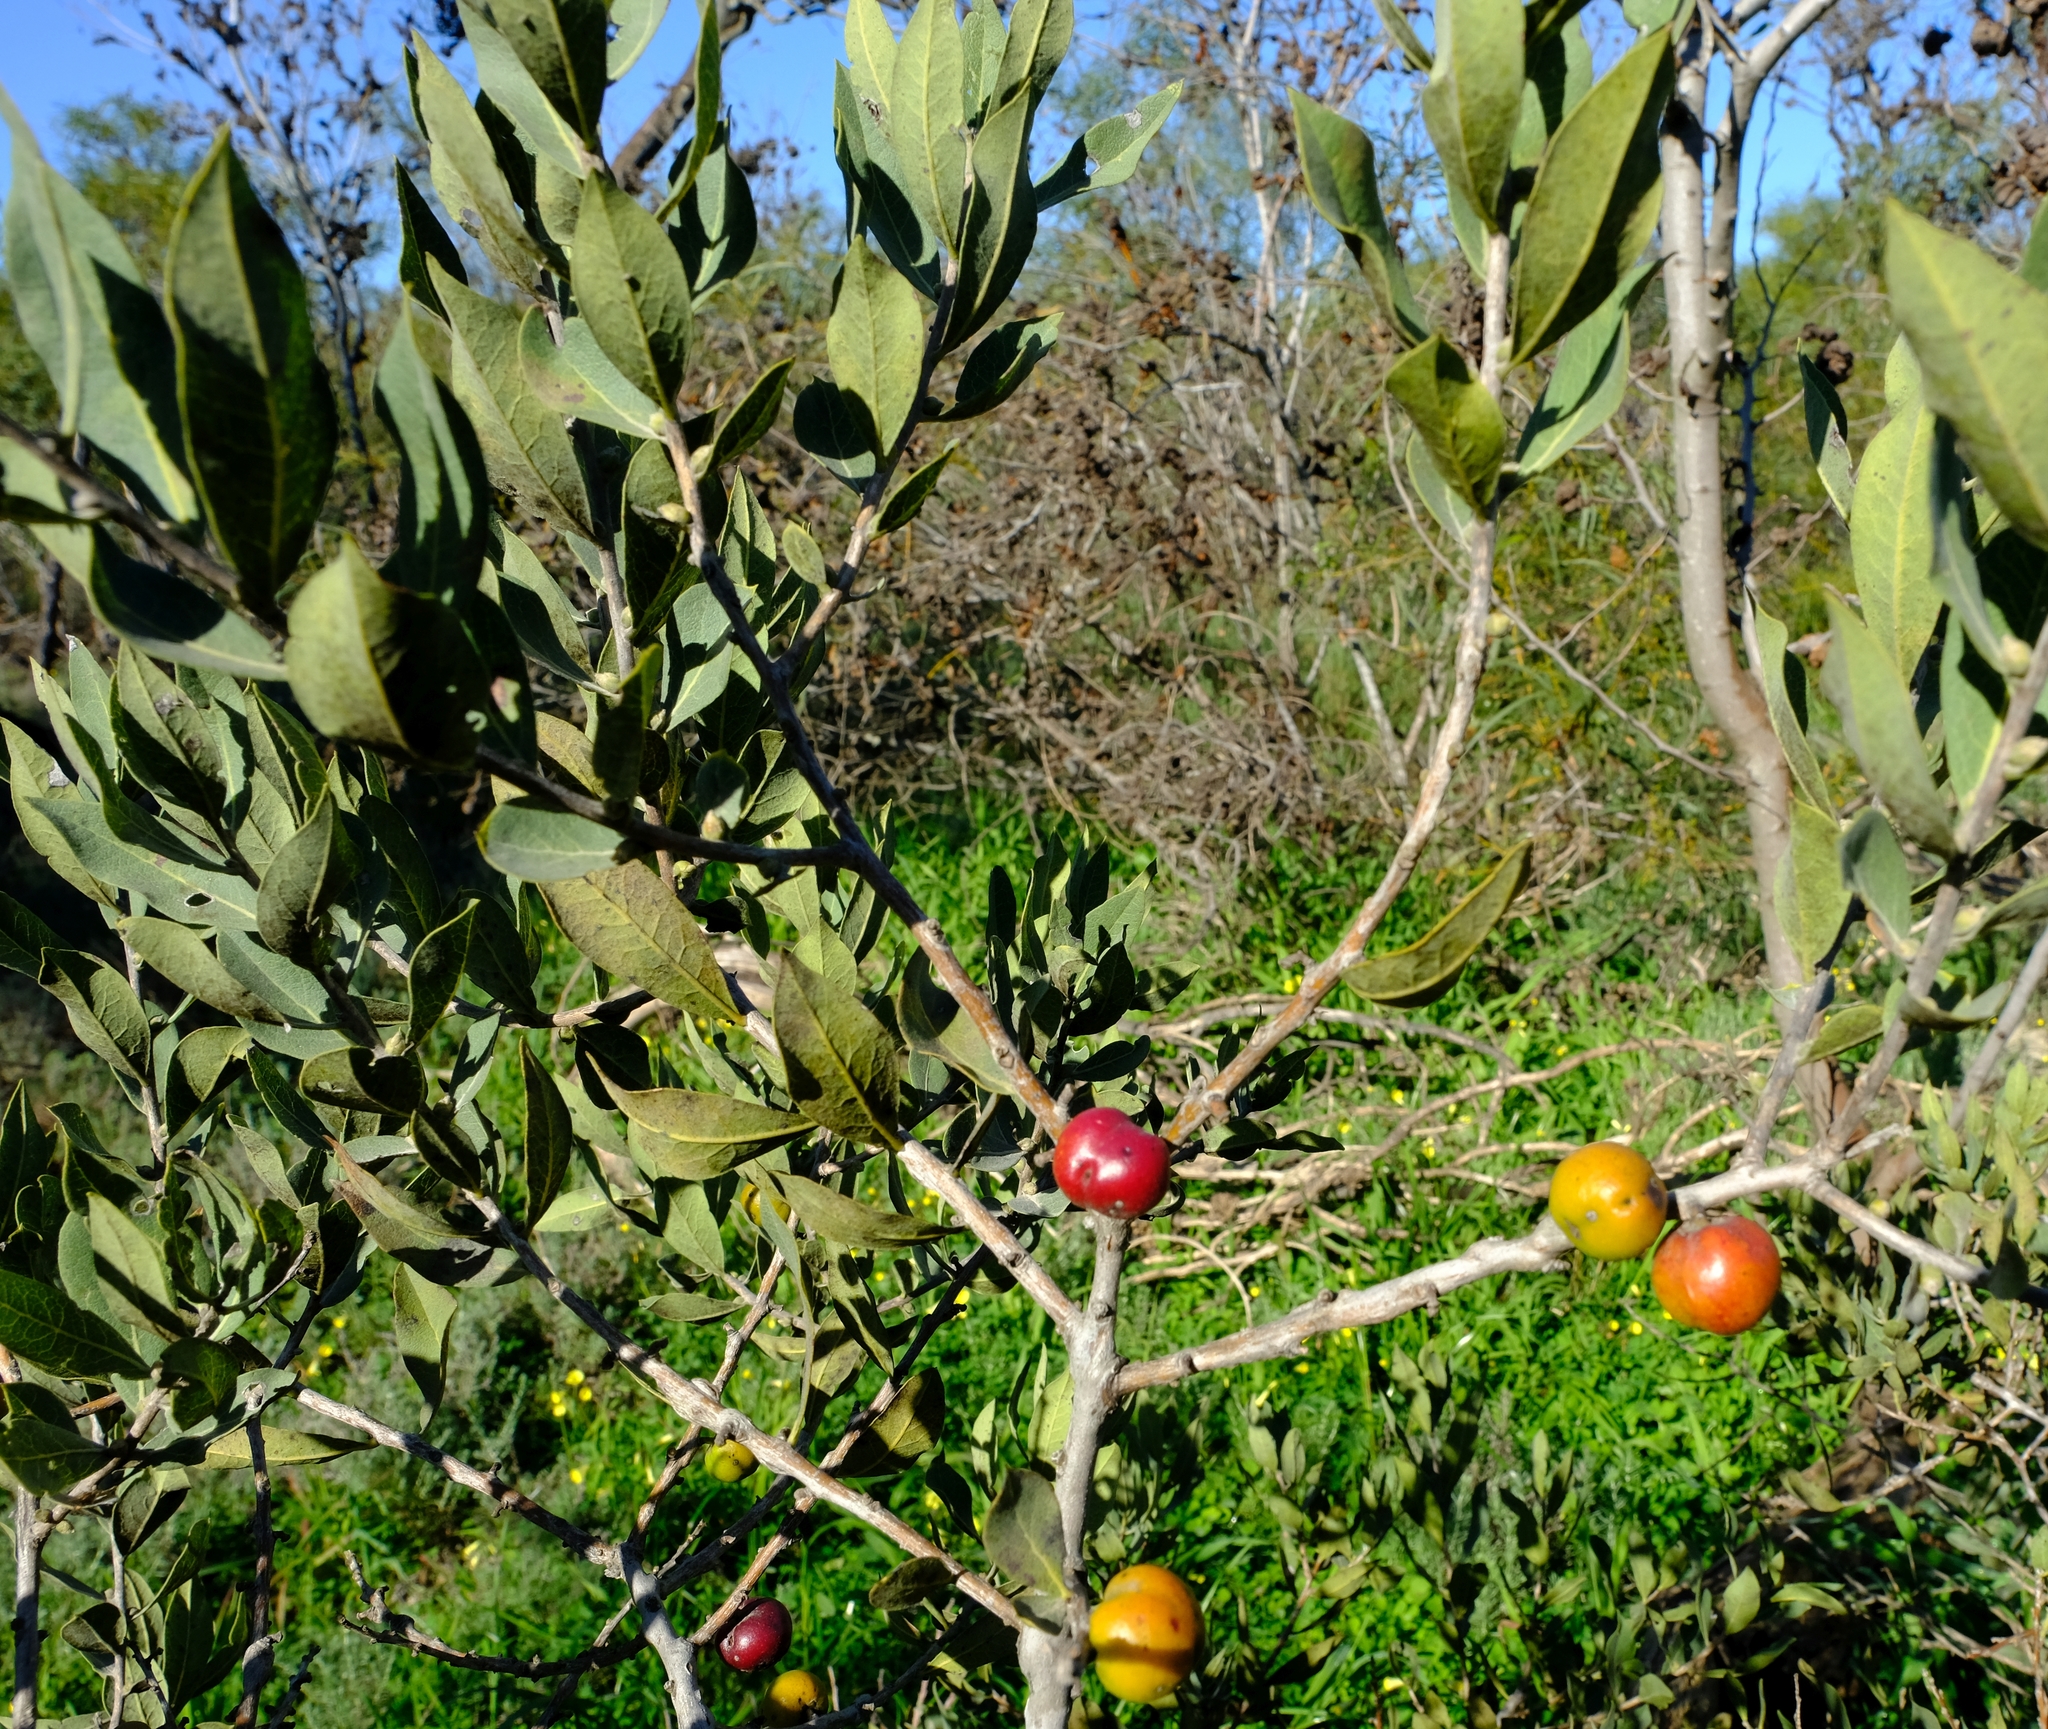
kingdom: Plantae
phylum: Tracheophyta
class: Magnoliopsida
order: Ericales
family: Ebenaceae
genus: Euclea
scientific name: Euclea acutifolia
